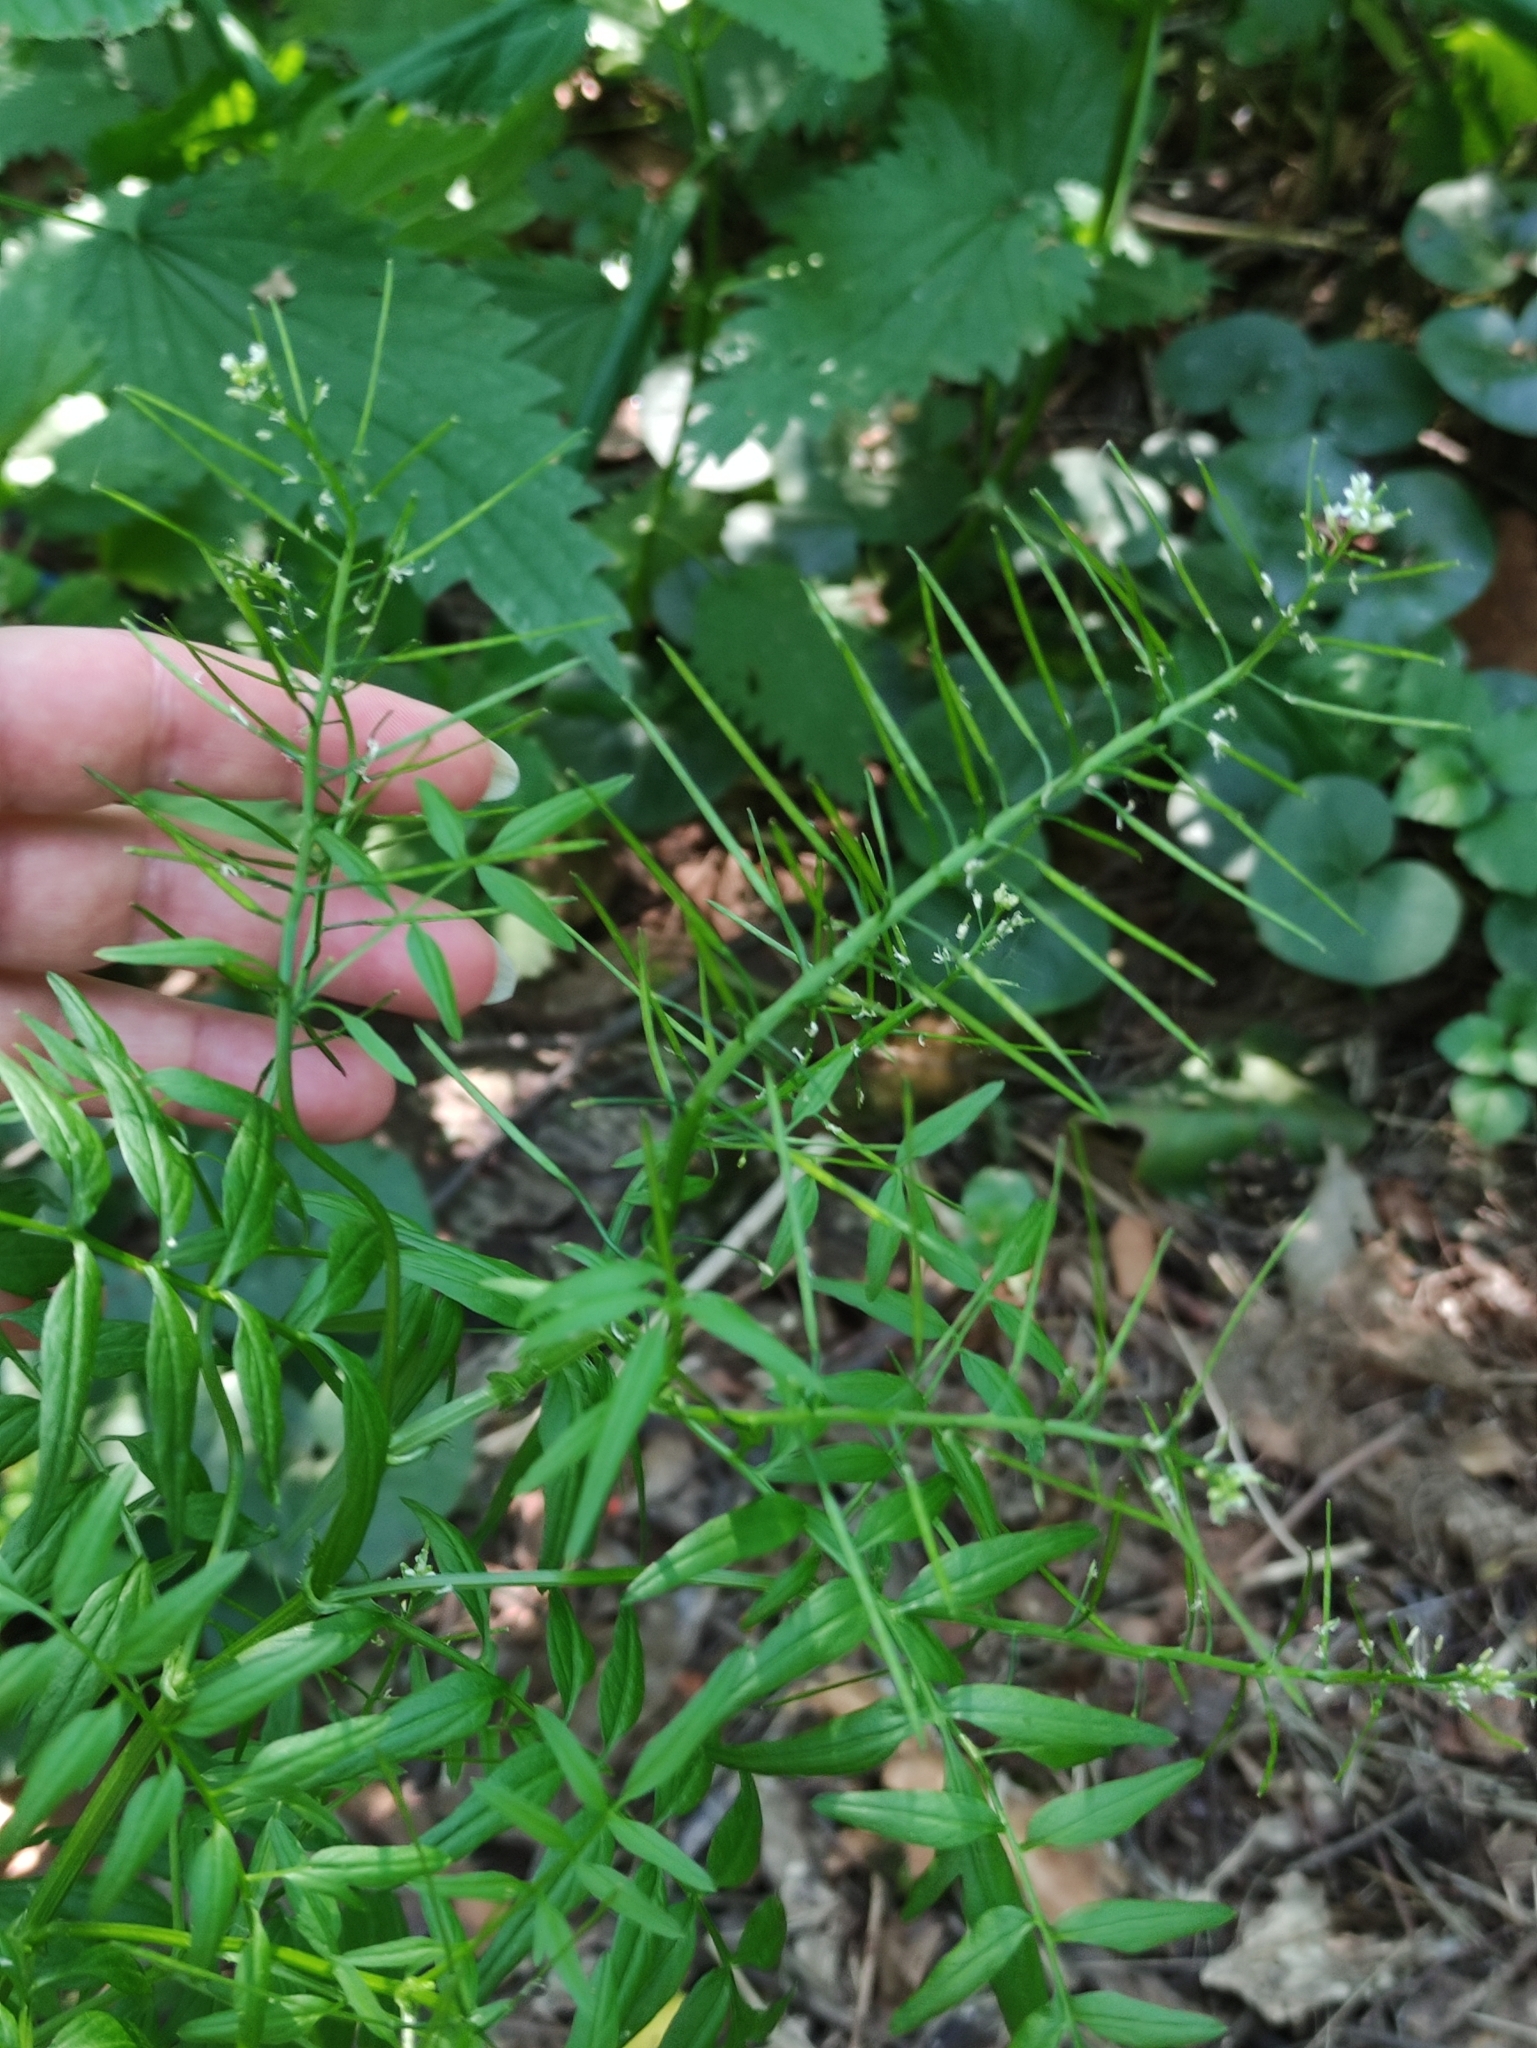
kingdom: Plantae
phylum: Tracheophyta
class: Magnoliopsida
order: Brassicales
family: Brassicaceae
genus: Cardamine
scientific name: Cardamine impatiens
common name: Narrow-leaved bitter-cress
